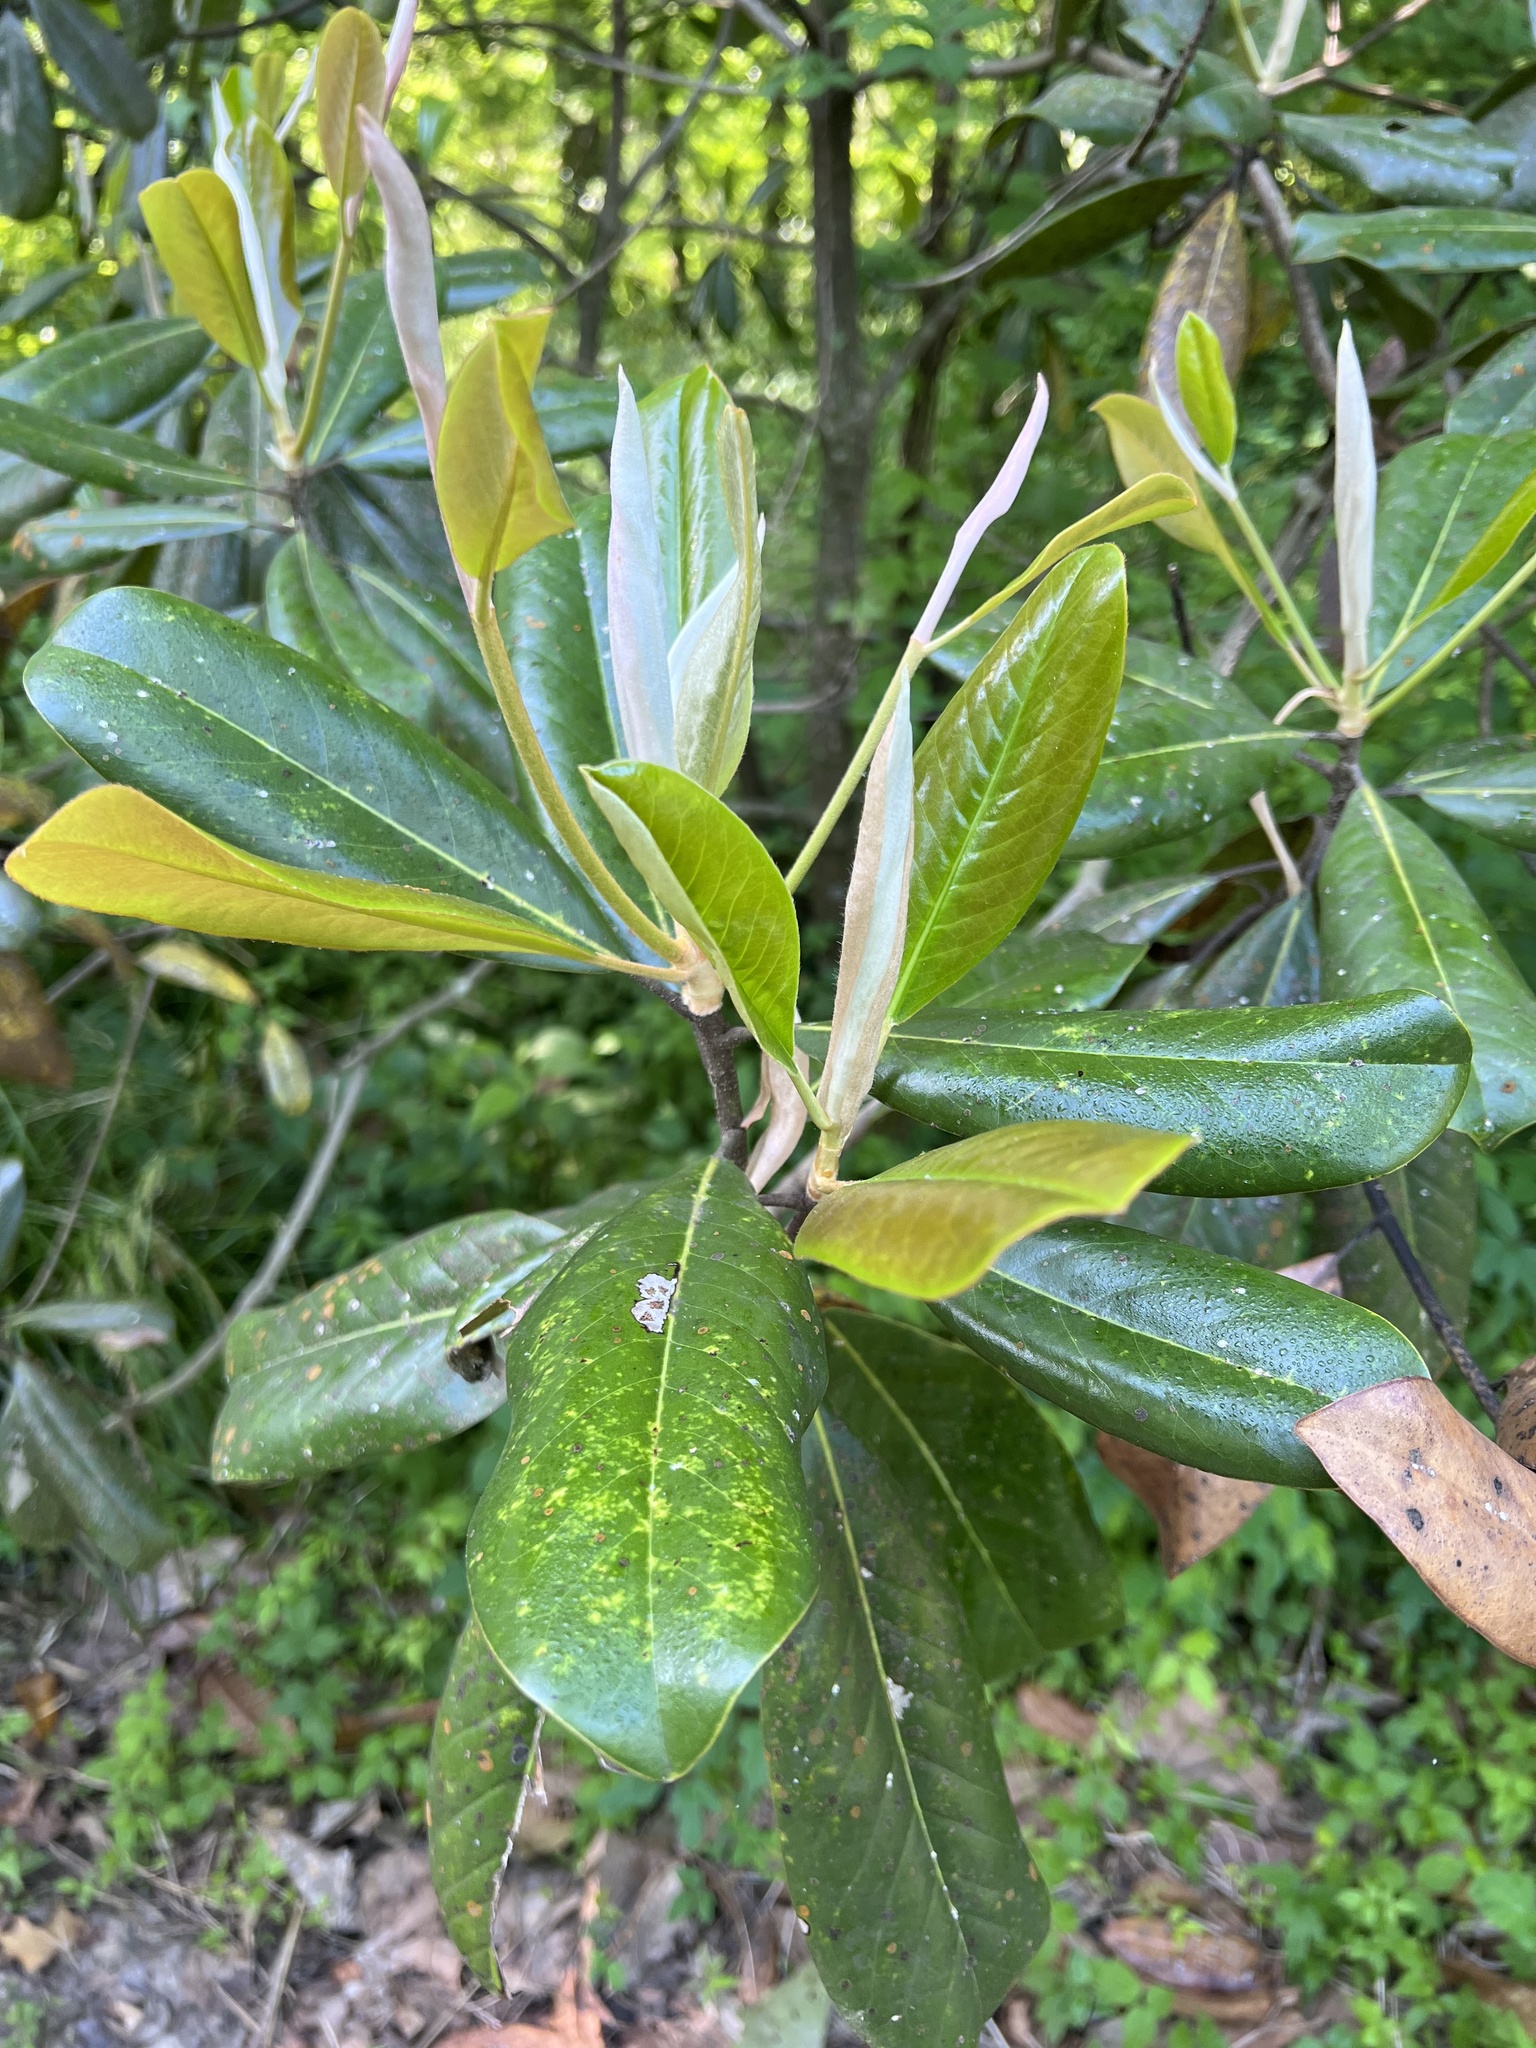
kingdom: Plantae
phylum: Tracheophyta
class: Magnoliopsida
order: Magnoliales
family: Magnoliaceae
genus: Magnolia
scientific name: Magnolia grandiflora
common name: Southern magnolia
